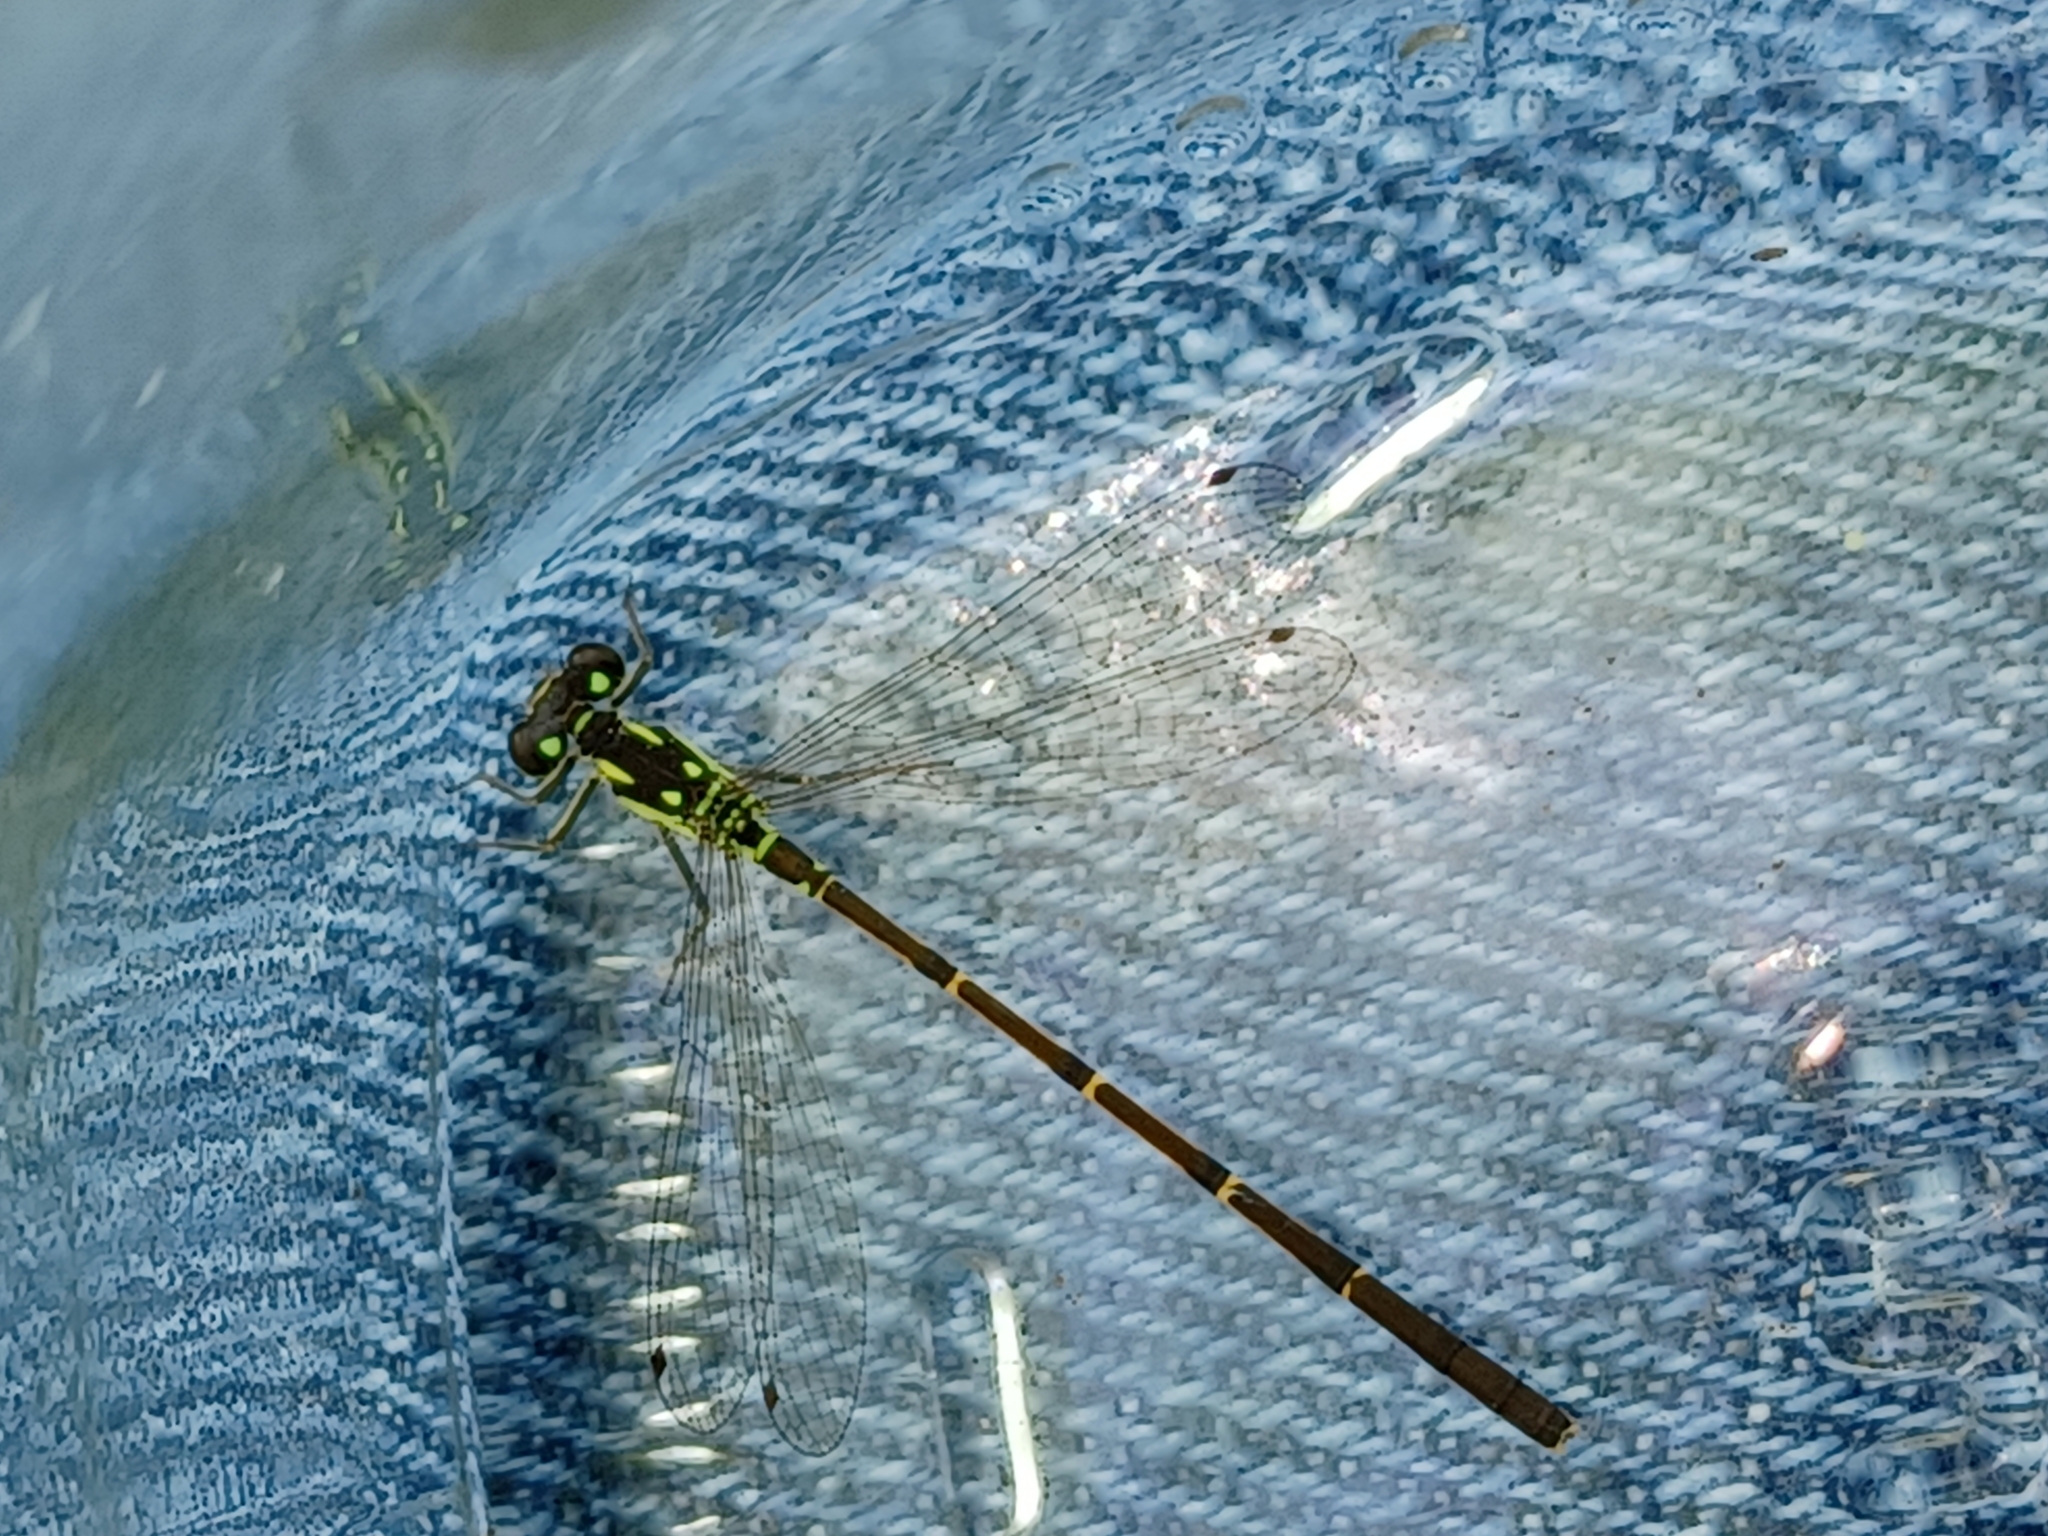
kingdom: Animalia
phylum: Arthropoda
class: Insecta
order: Odonata
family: Coenagrionidae
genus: Ischnura
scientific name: Ischnura posita
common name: Fragile forktail
